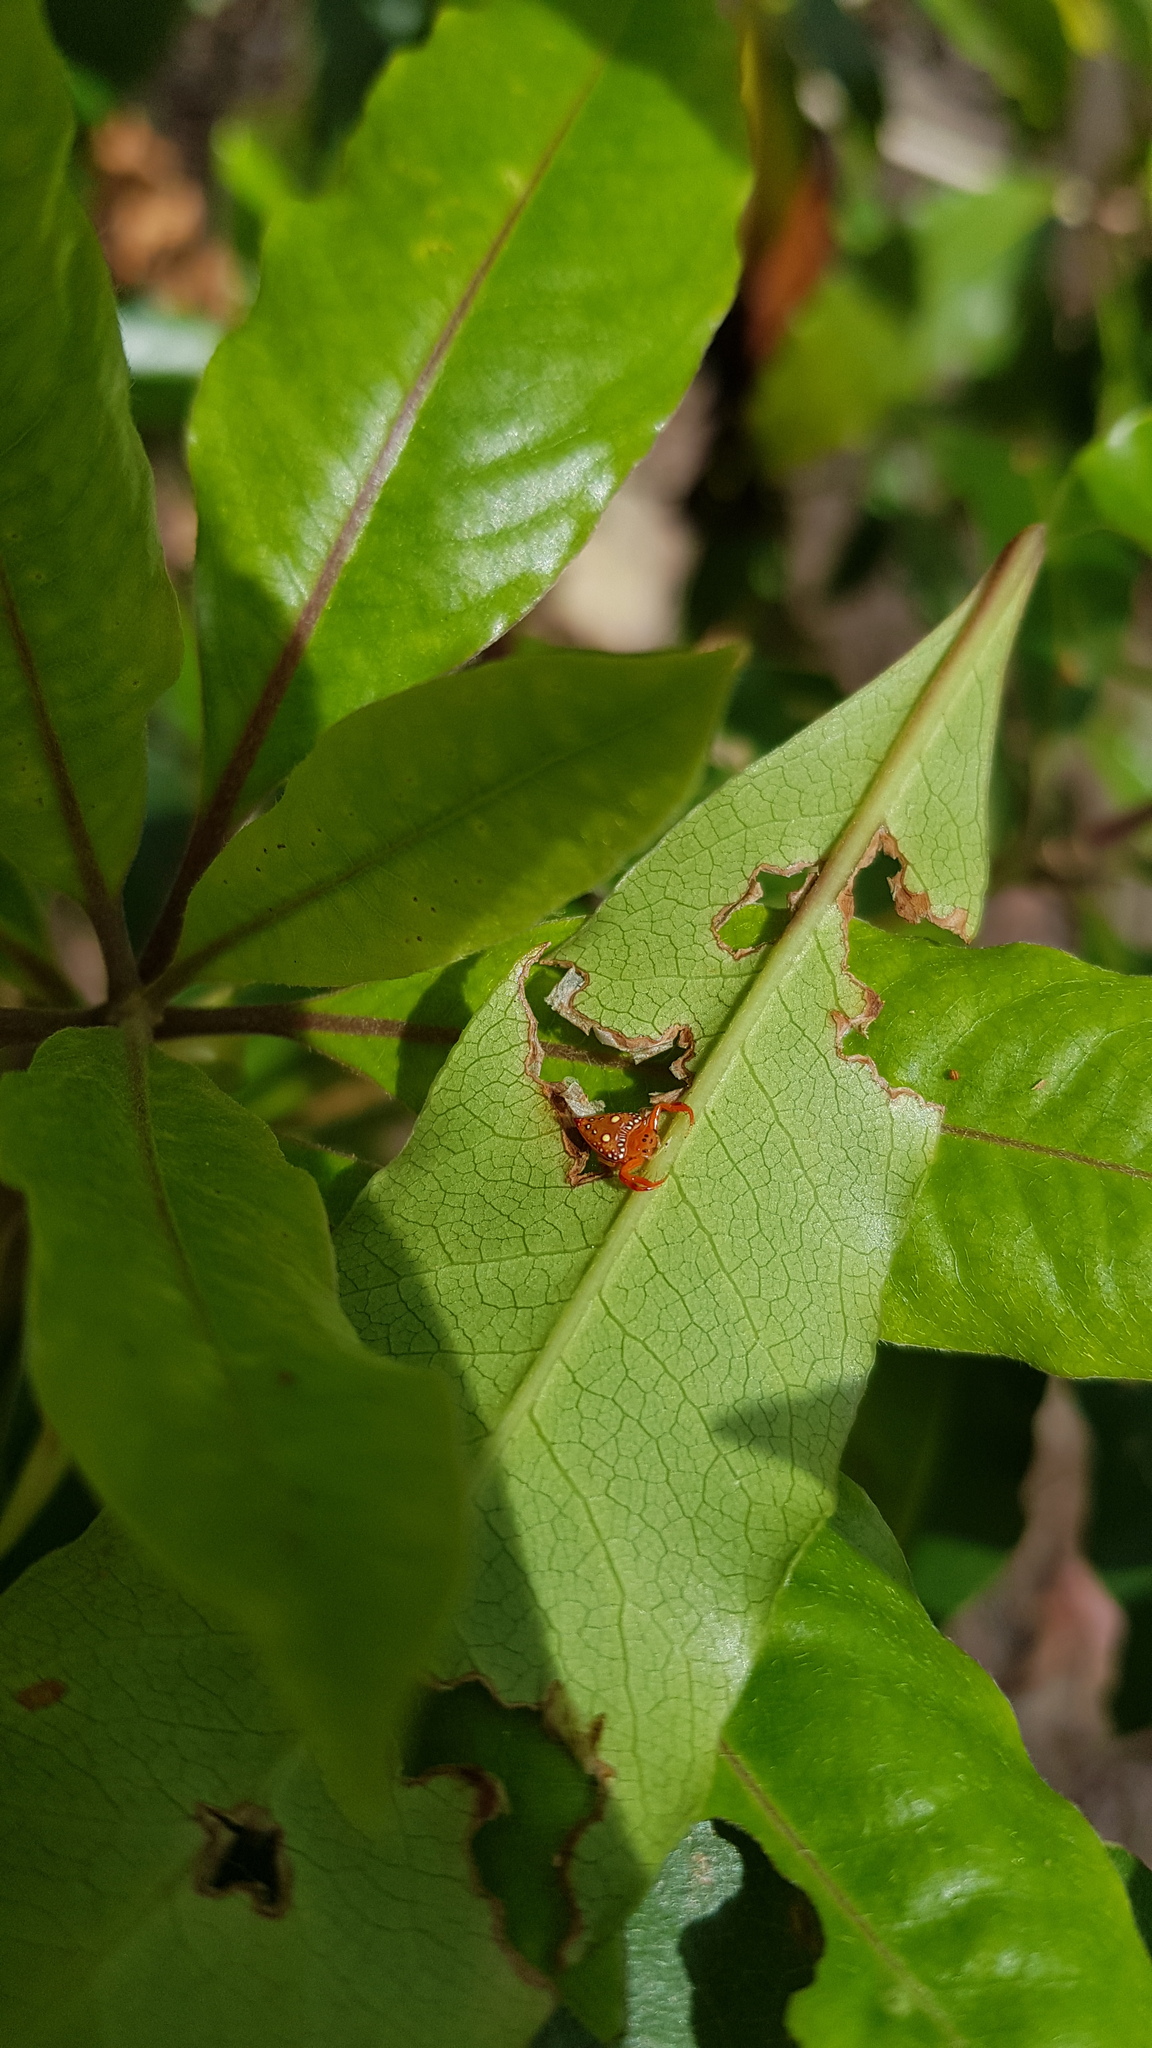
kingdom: Animalia
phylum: Arthropoda
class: Arachnida
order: Araneae
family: Arkyidae
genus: Arkys
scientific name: Arkys lancearius
